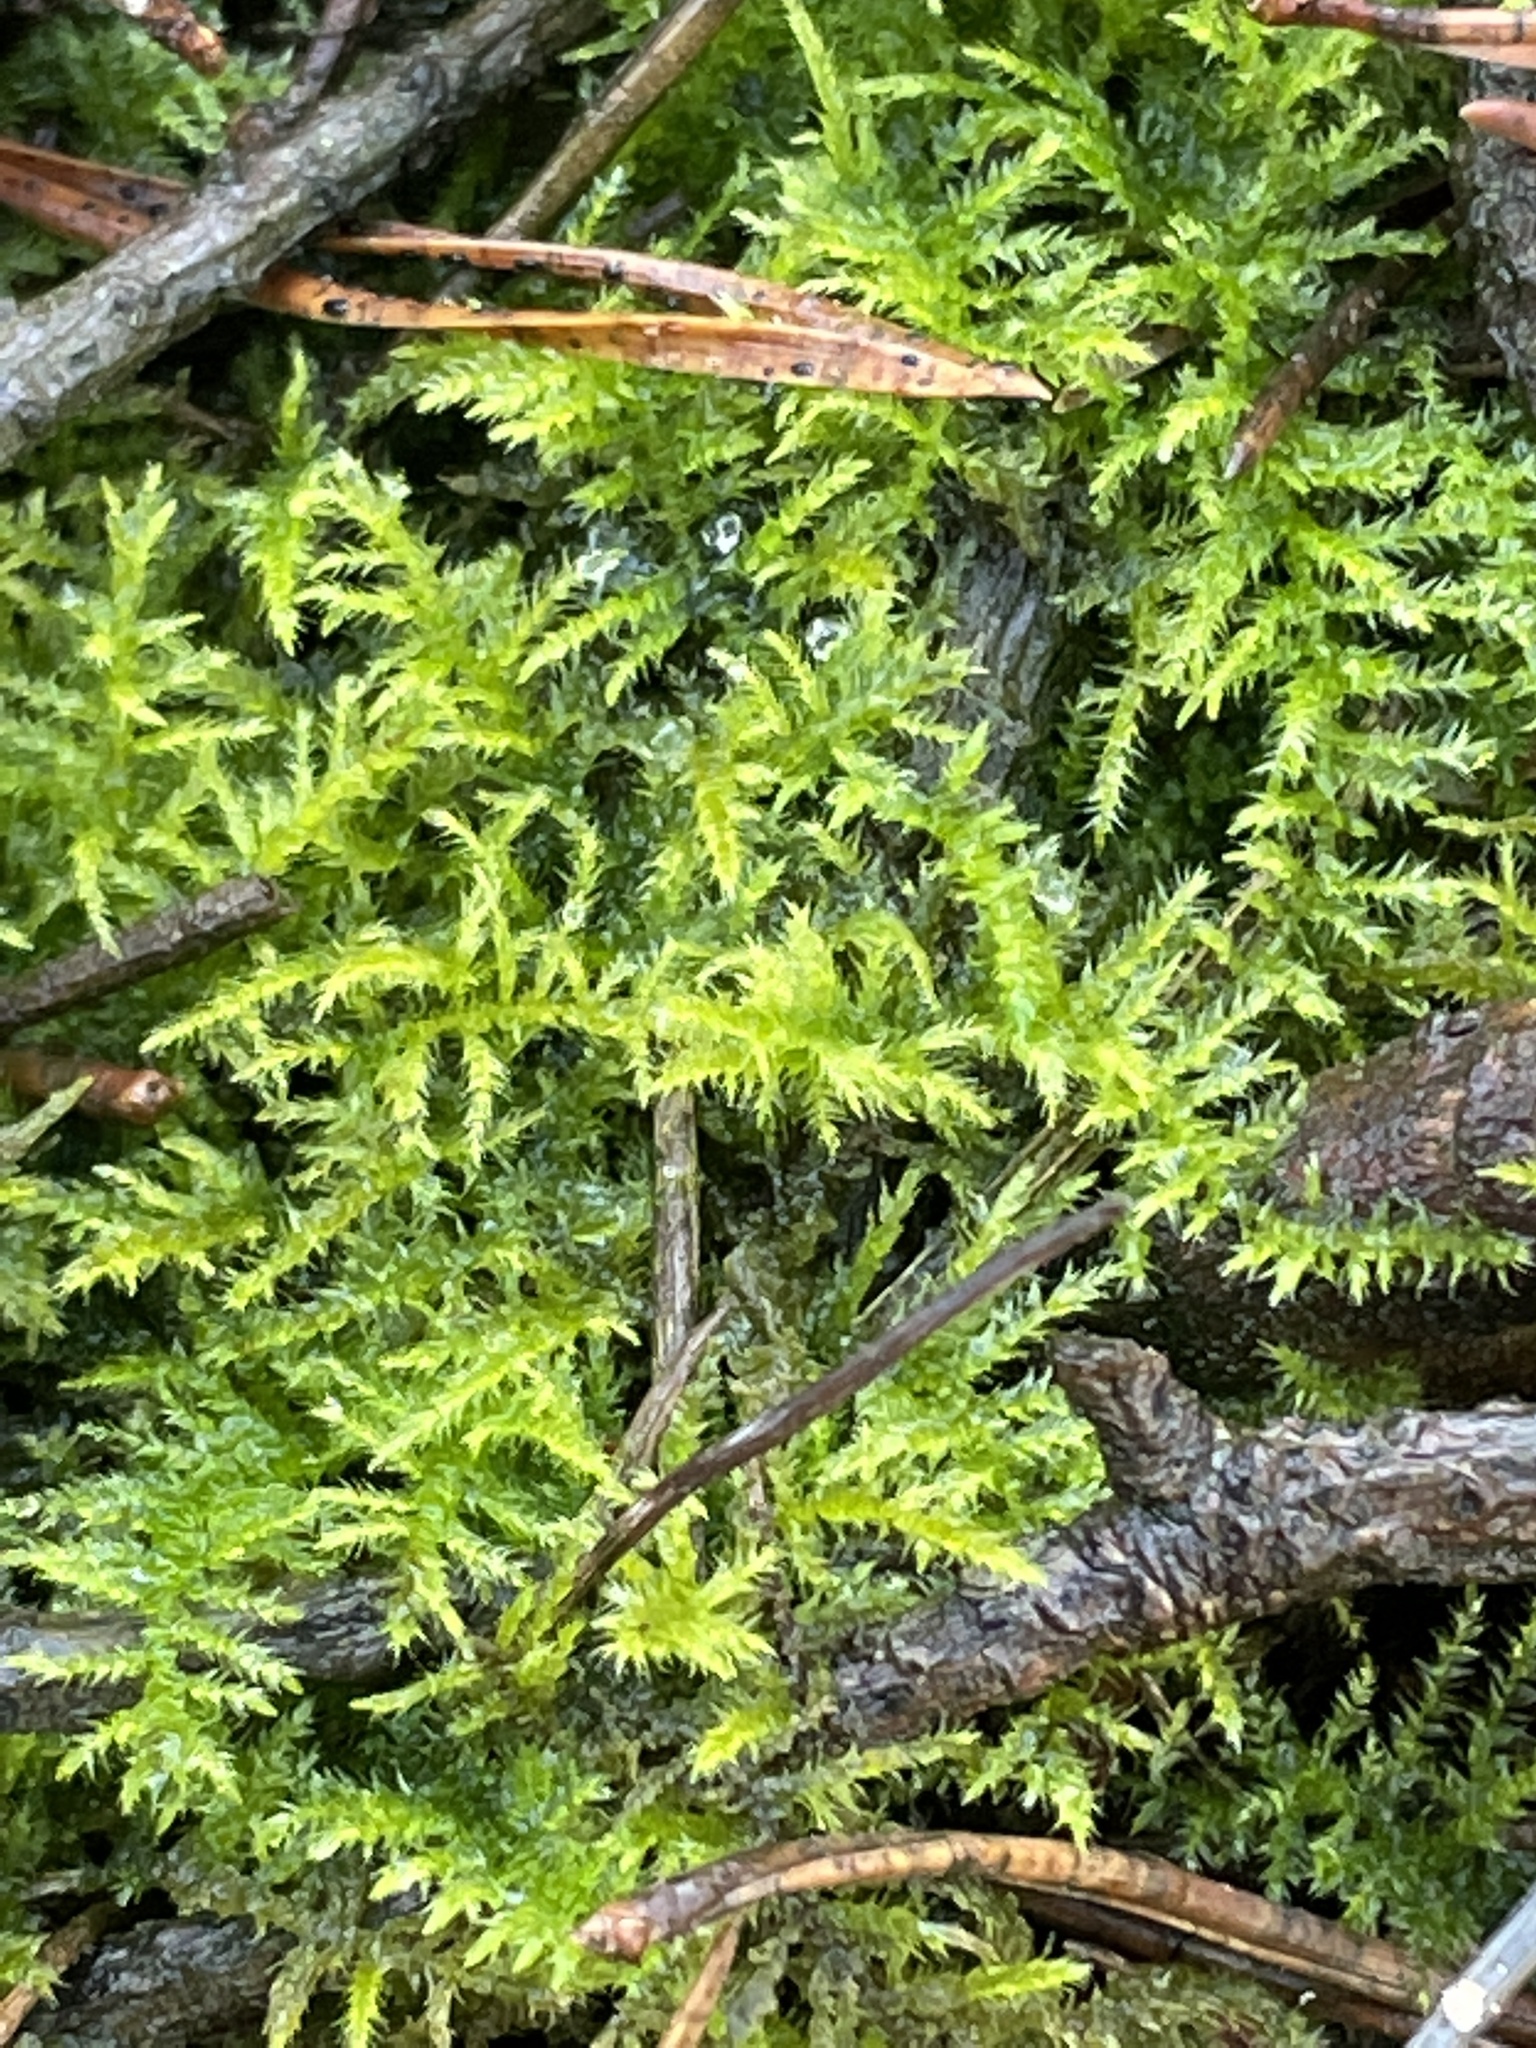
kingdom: Plantae
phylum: Bryophyta
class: Bryopsida
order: Hypnales
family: Brachytheciaceae
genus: Kindbergia
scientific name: Kindbergia praelonga
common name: Slender beaked moss
